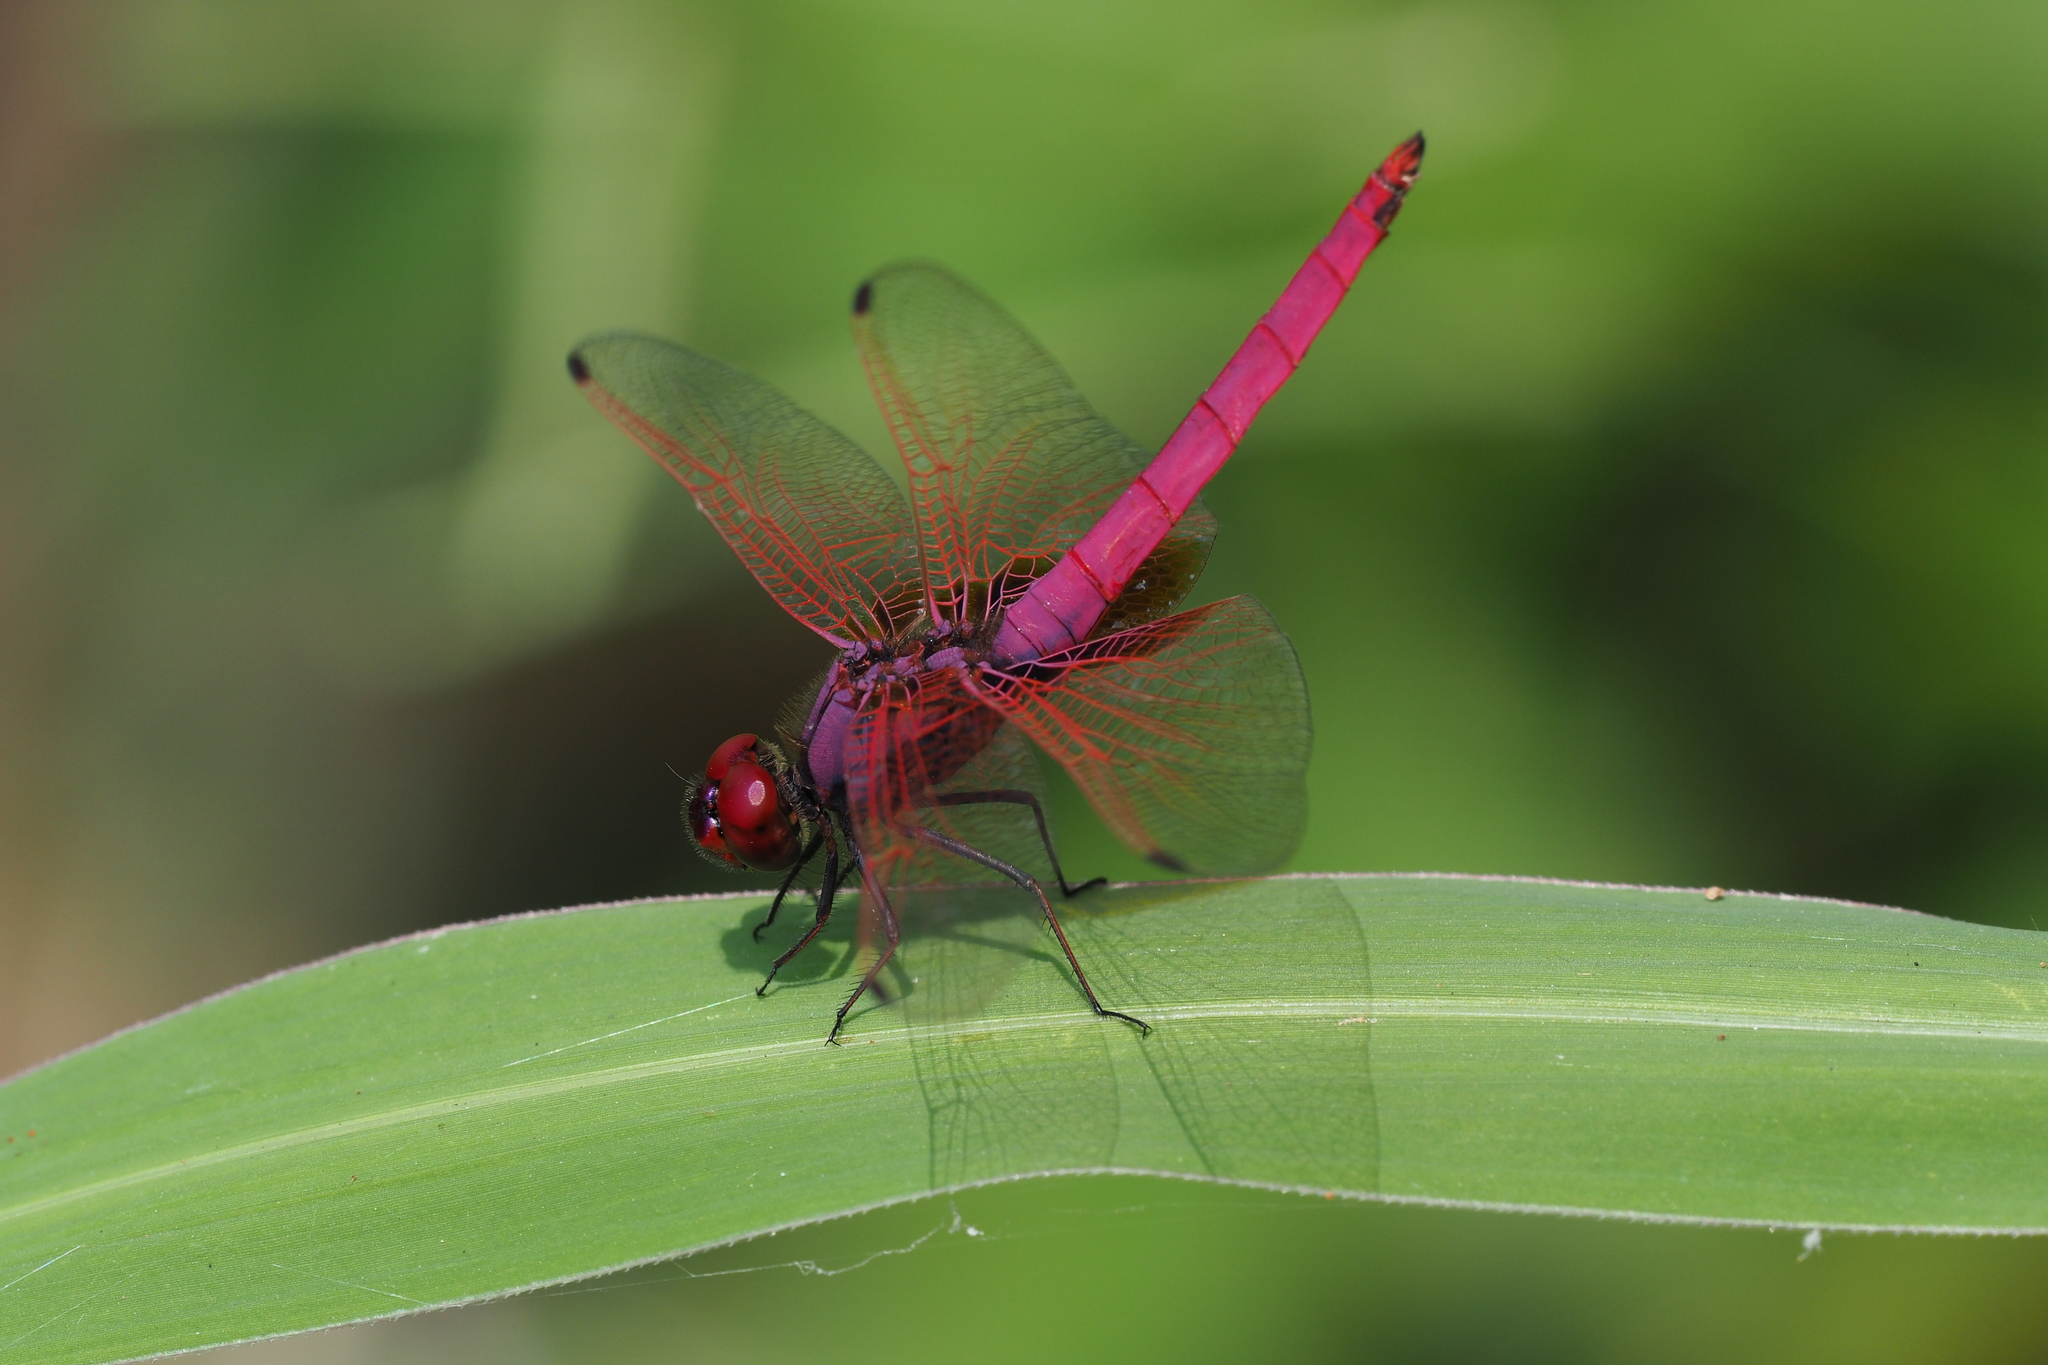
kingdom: Animalia
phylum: Arthropoda
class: Insecta
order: Odonata
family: Libellulidae
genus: Trithemis
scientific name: Trithemis aurora
